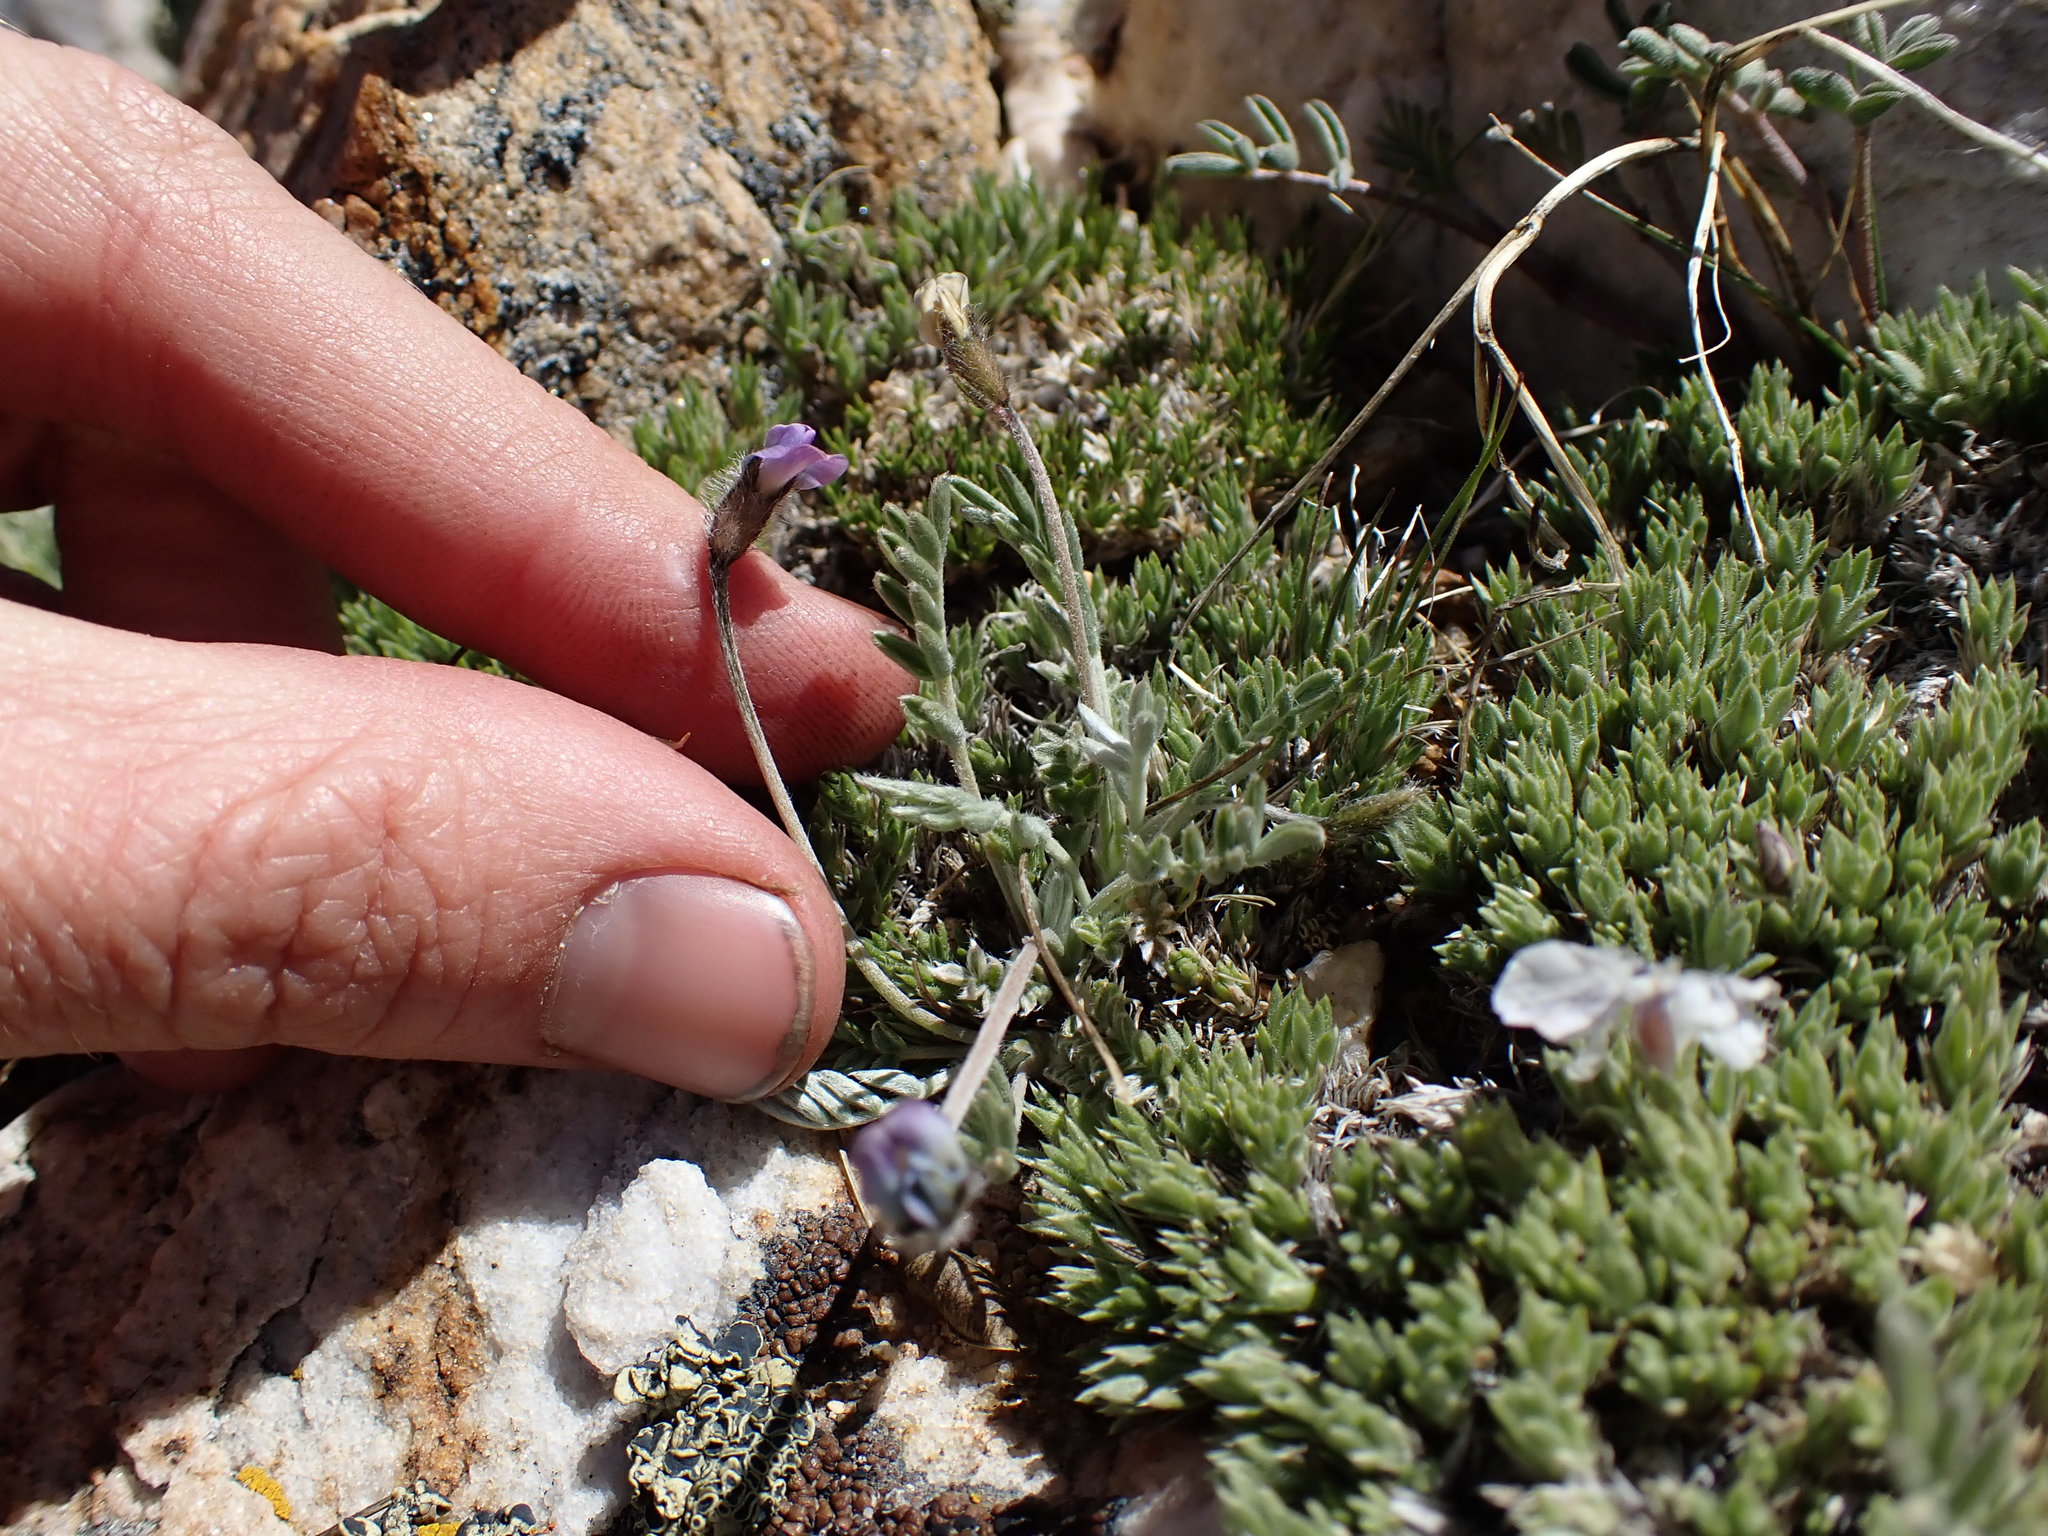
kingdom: Plantae
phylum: Tracheophyta
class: Magnoliopsida
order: Fabales
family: Fabaceae
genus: Oxytropis
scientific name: Oxytropis parryi
